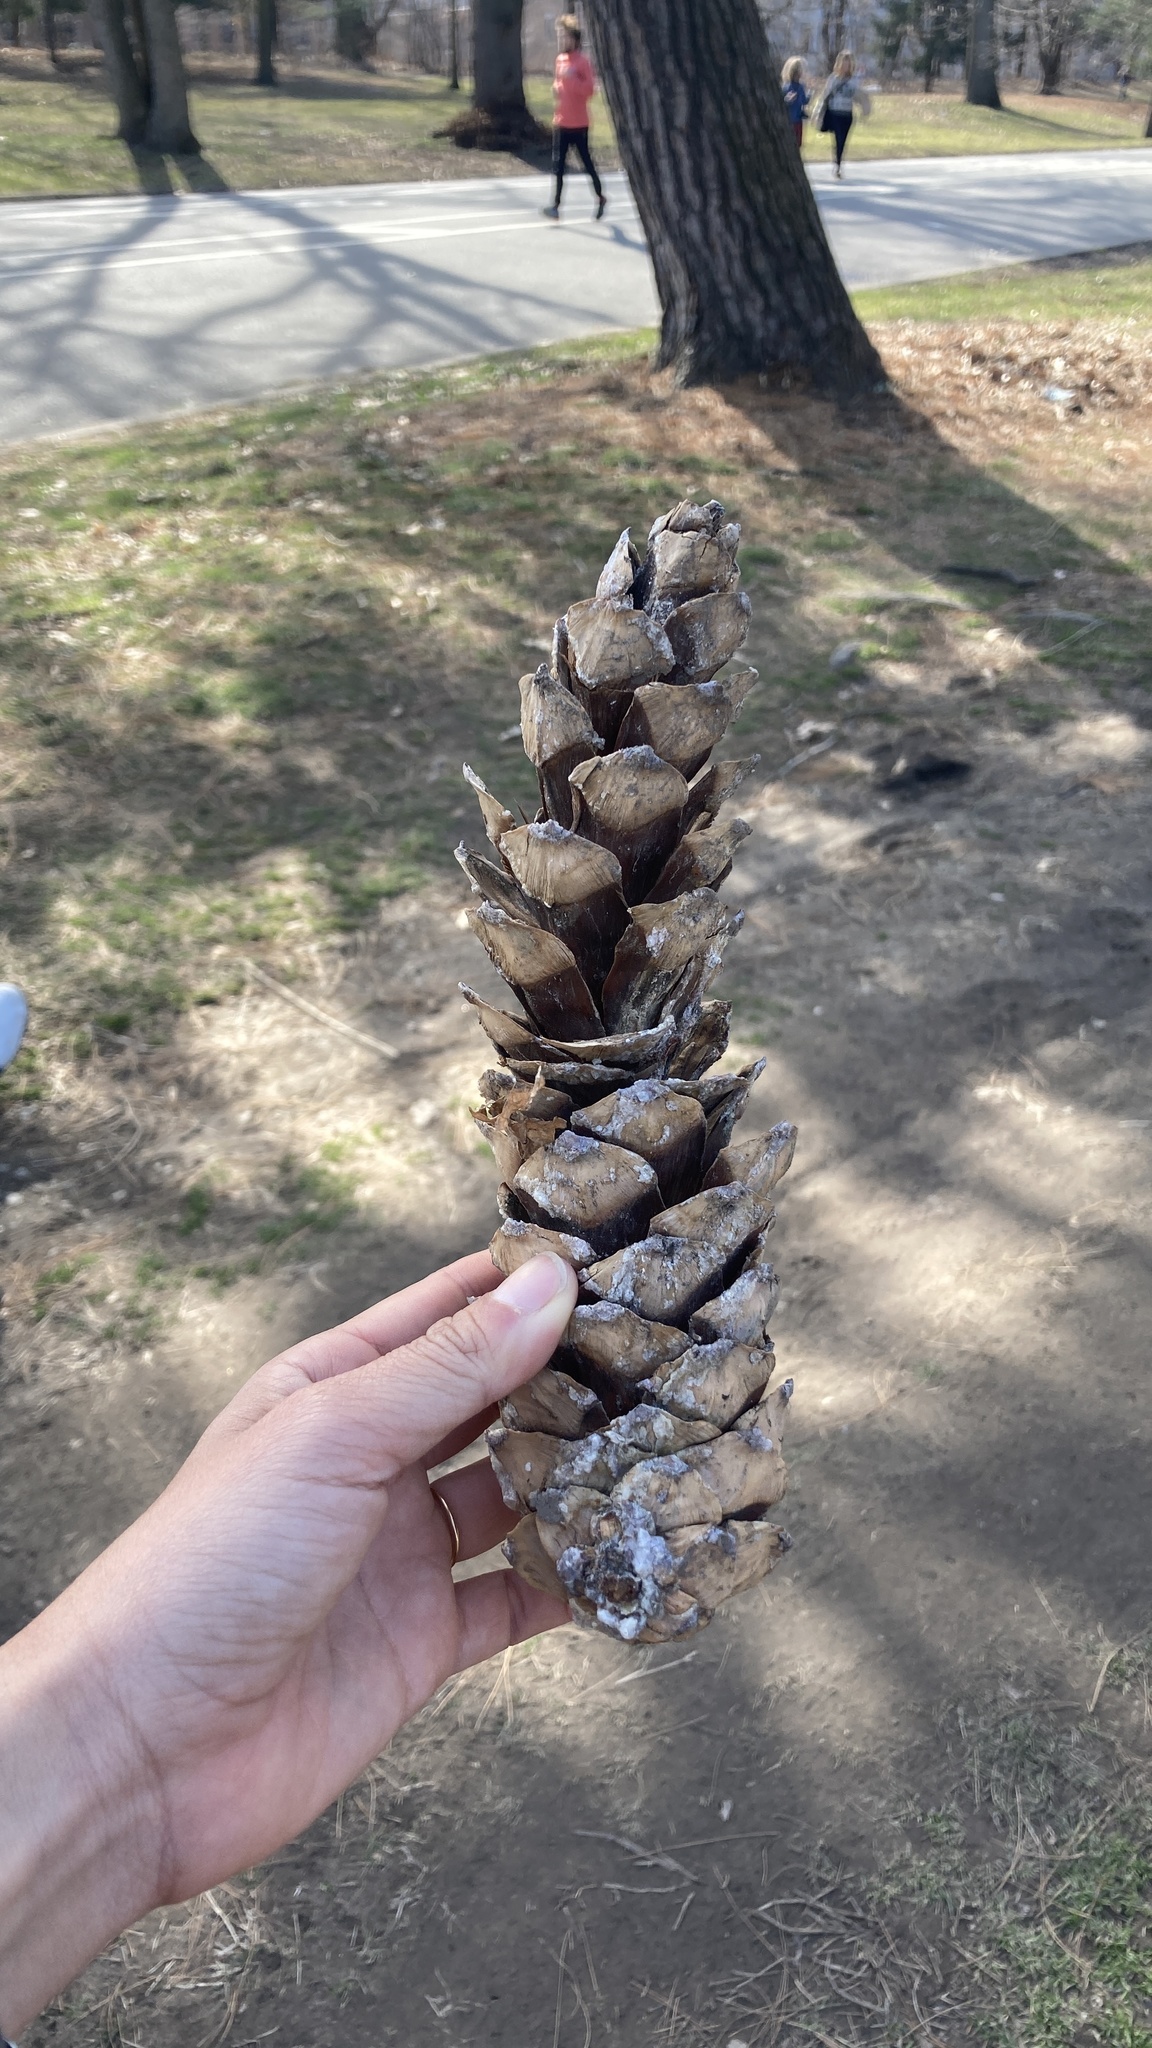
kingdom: Plantae
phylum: Tracheophyta
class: Pinopsida
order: Pinales
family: Pinaceae
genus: Pinus
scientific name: Pinus strobus
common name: Weymouth pine
